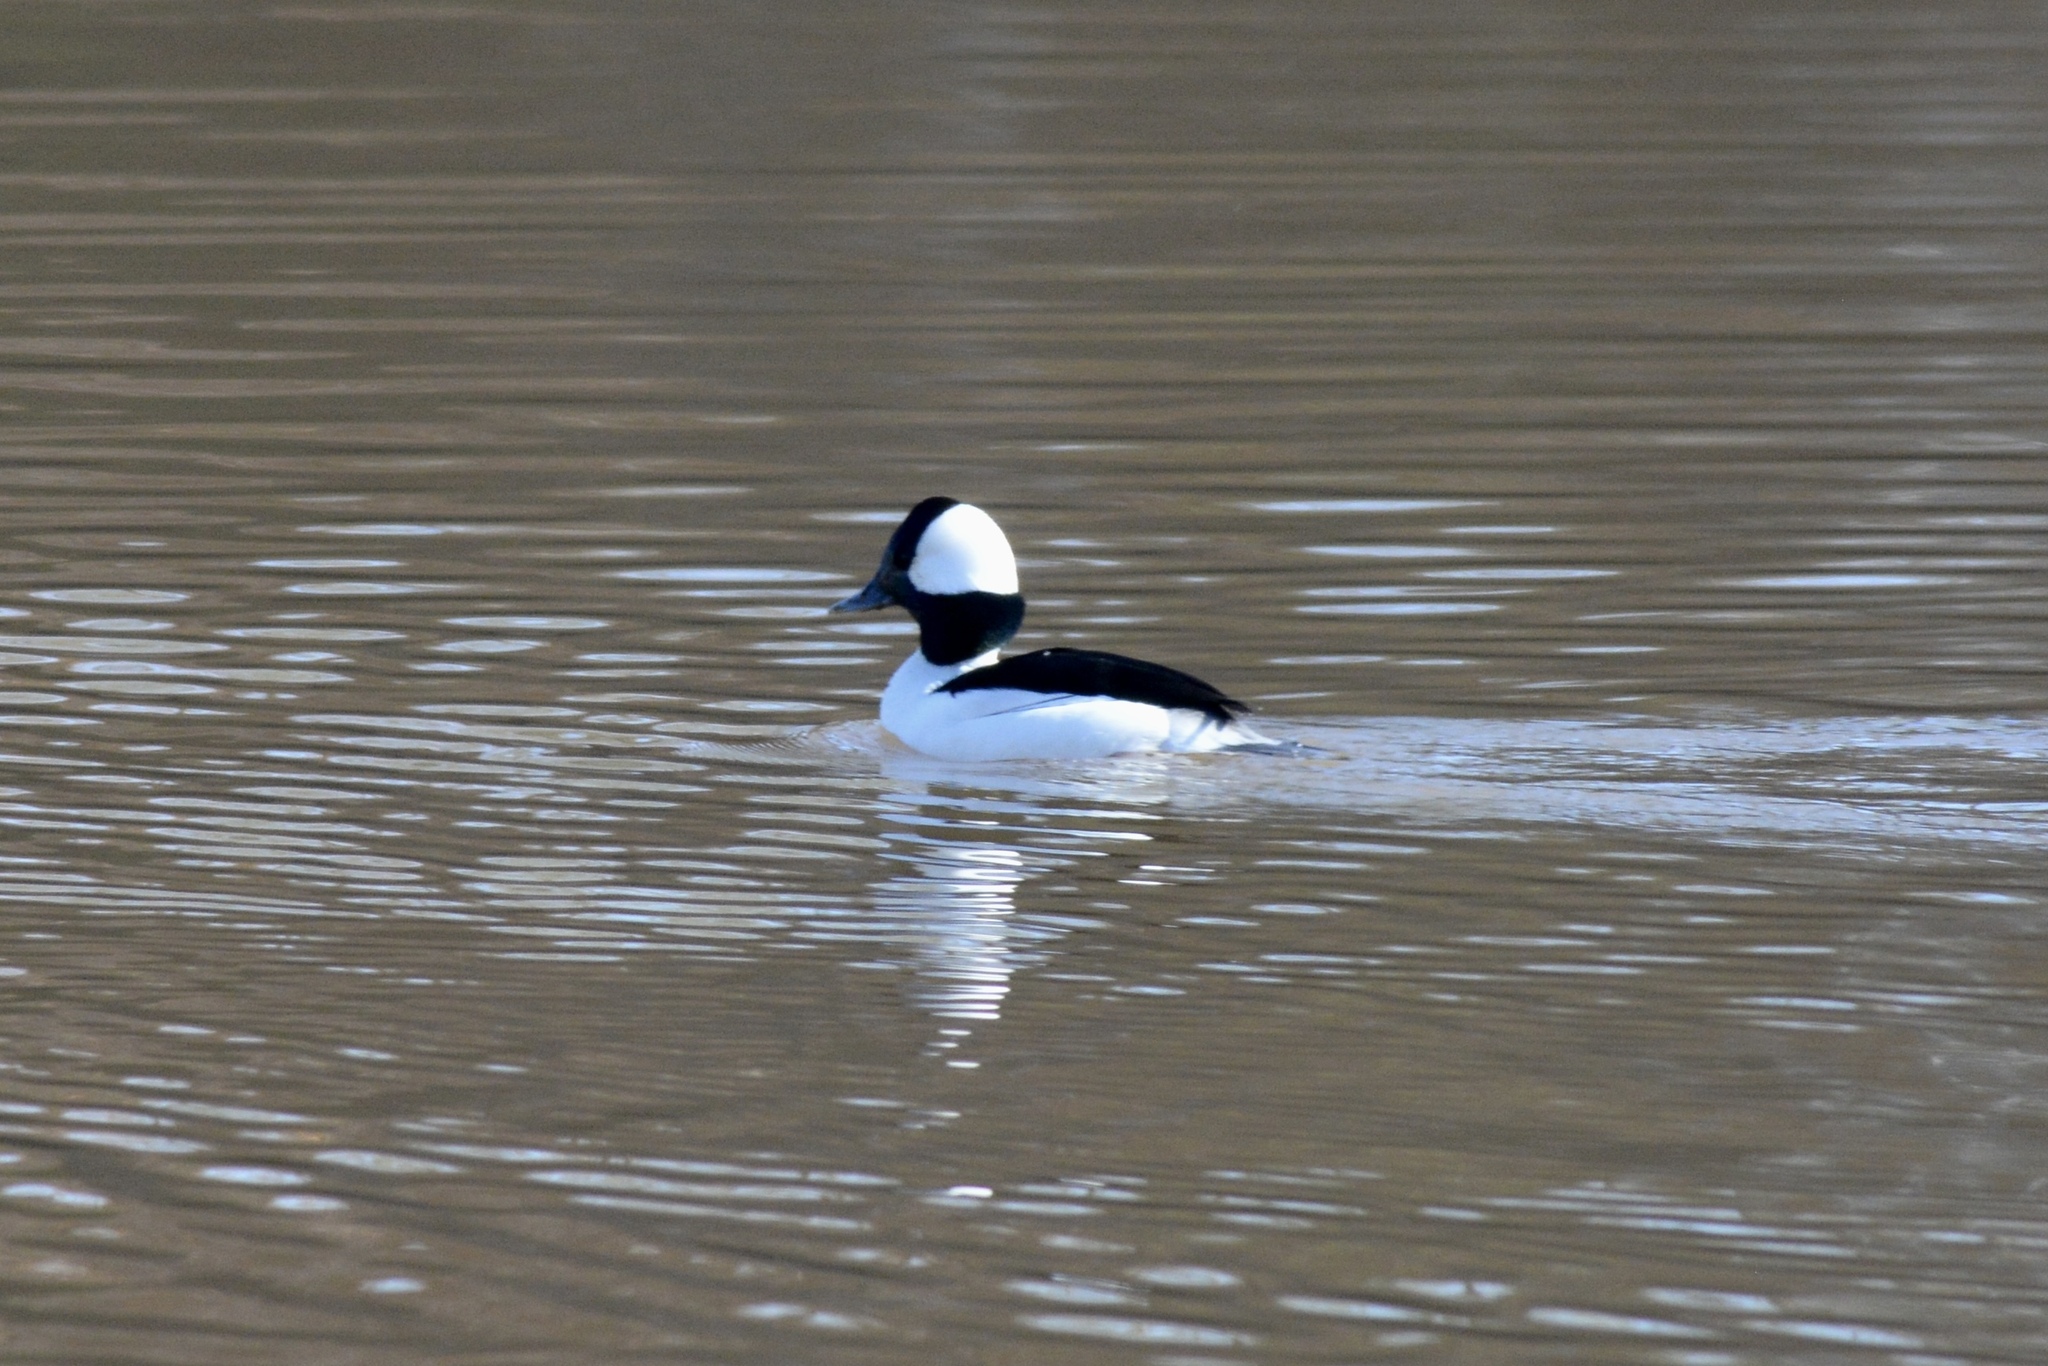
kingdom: Animalia
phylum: Chordata
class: Aves
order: Anseriformes
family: Anatidae
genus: Bucephala
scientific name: Bucephala albeola
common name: Bufflehead
